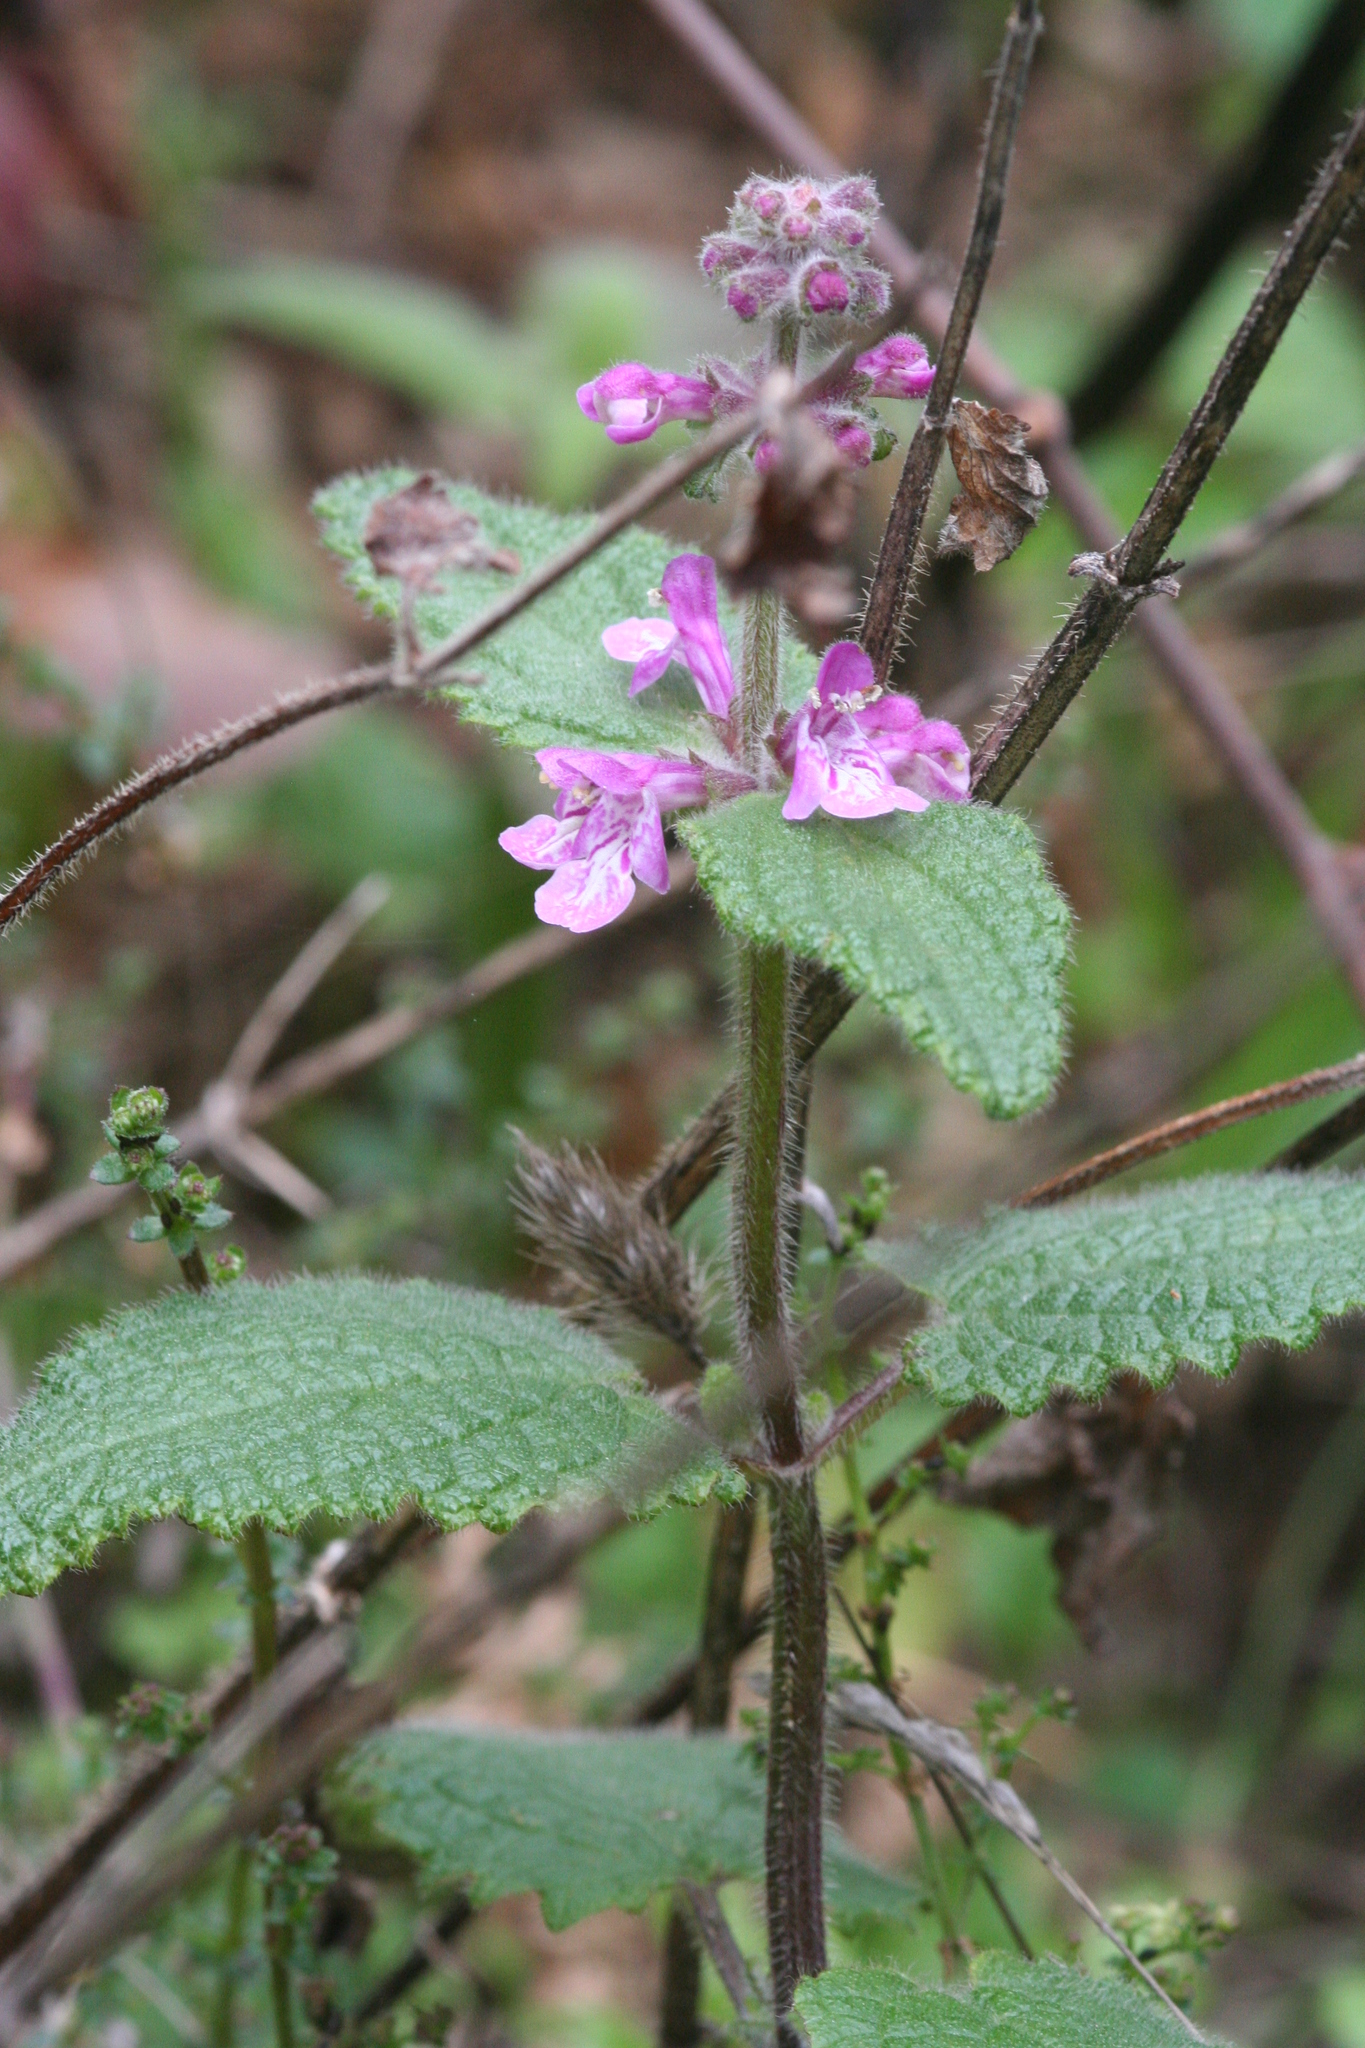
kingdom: Plantae
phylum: Tracheophyta
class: Magnoliopsida
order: Lamiales
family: Lamiaceae
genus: Stachys
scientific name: Stachys bullata
